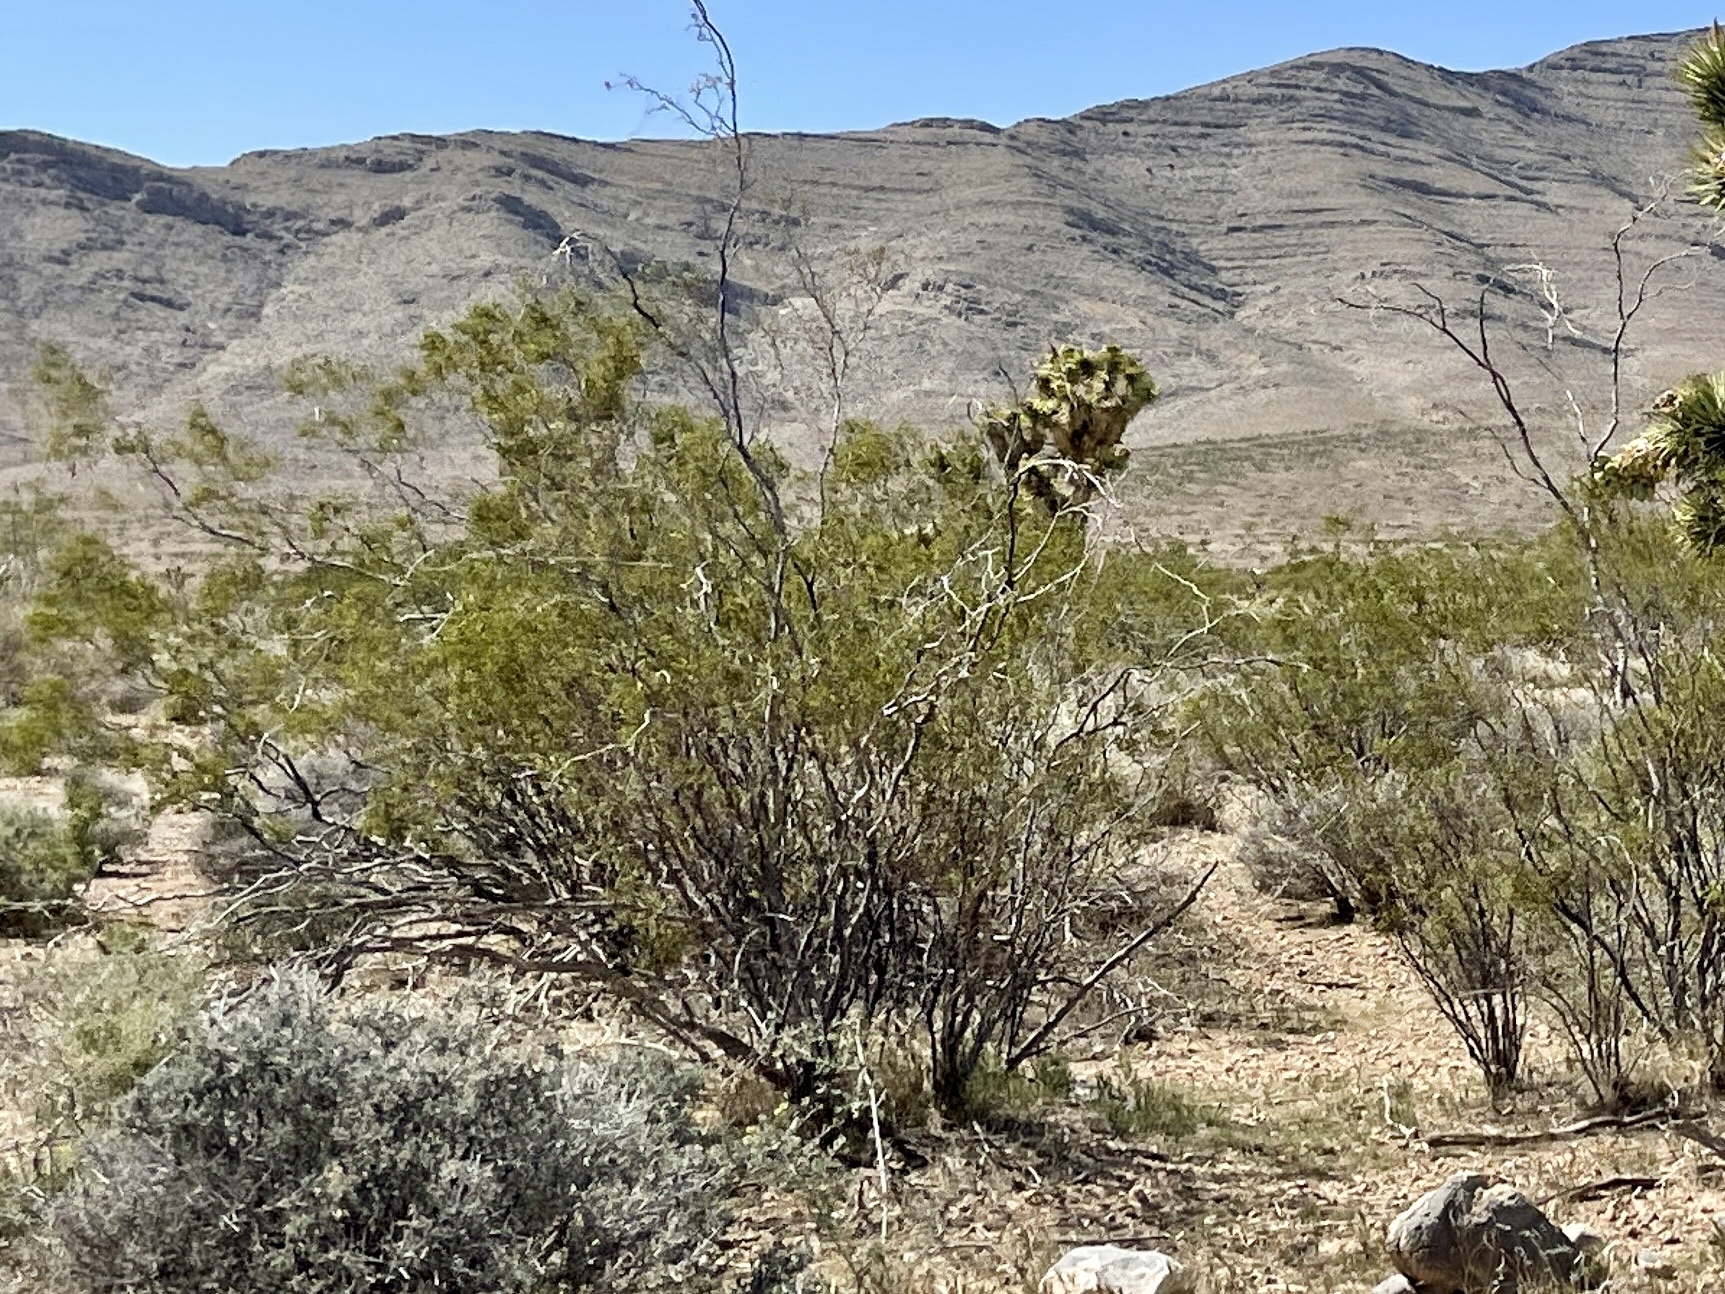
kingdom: Plantae
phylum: Tracheophyta
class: Magnoliopsida
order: Zygophyllales
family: Zygophyllaceae
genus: Larrea
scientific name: Larrea tridentata
